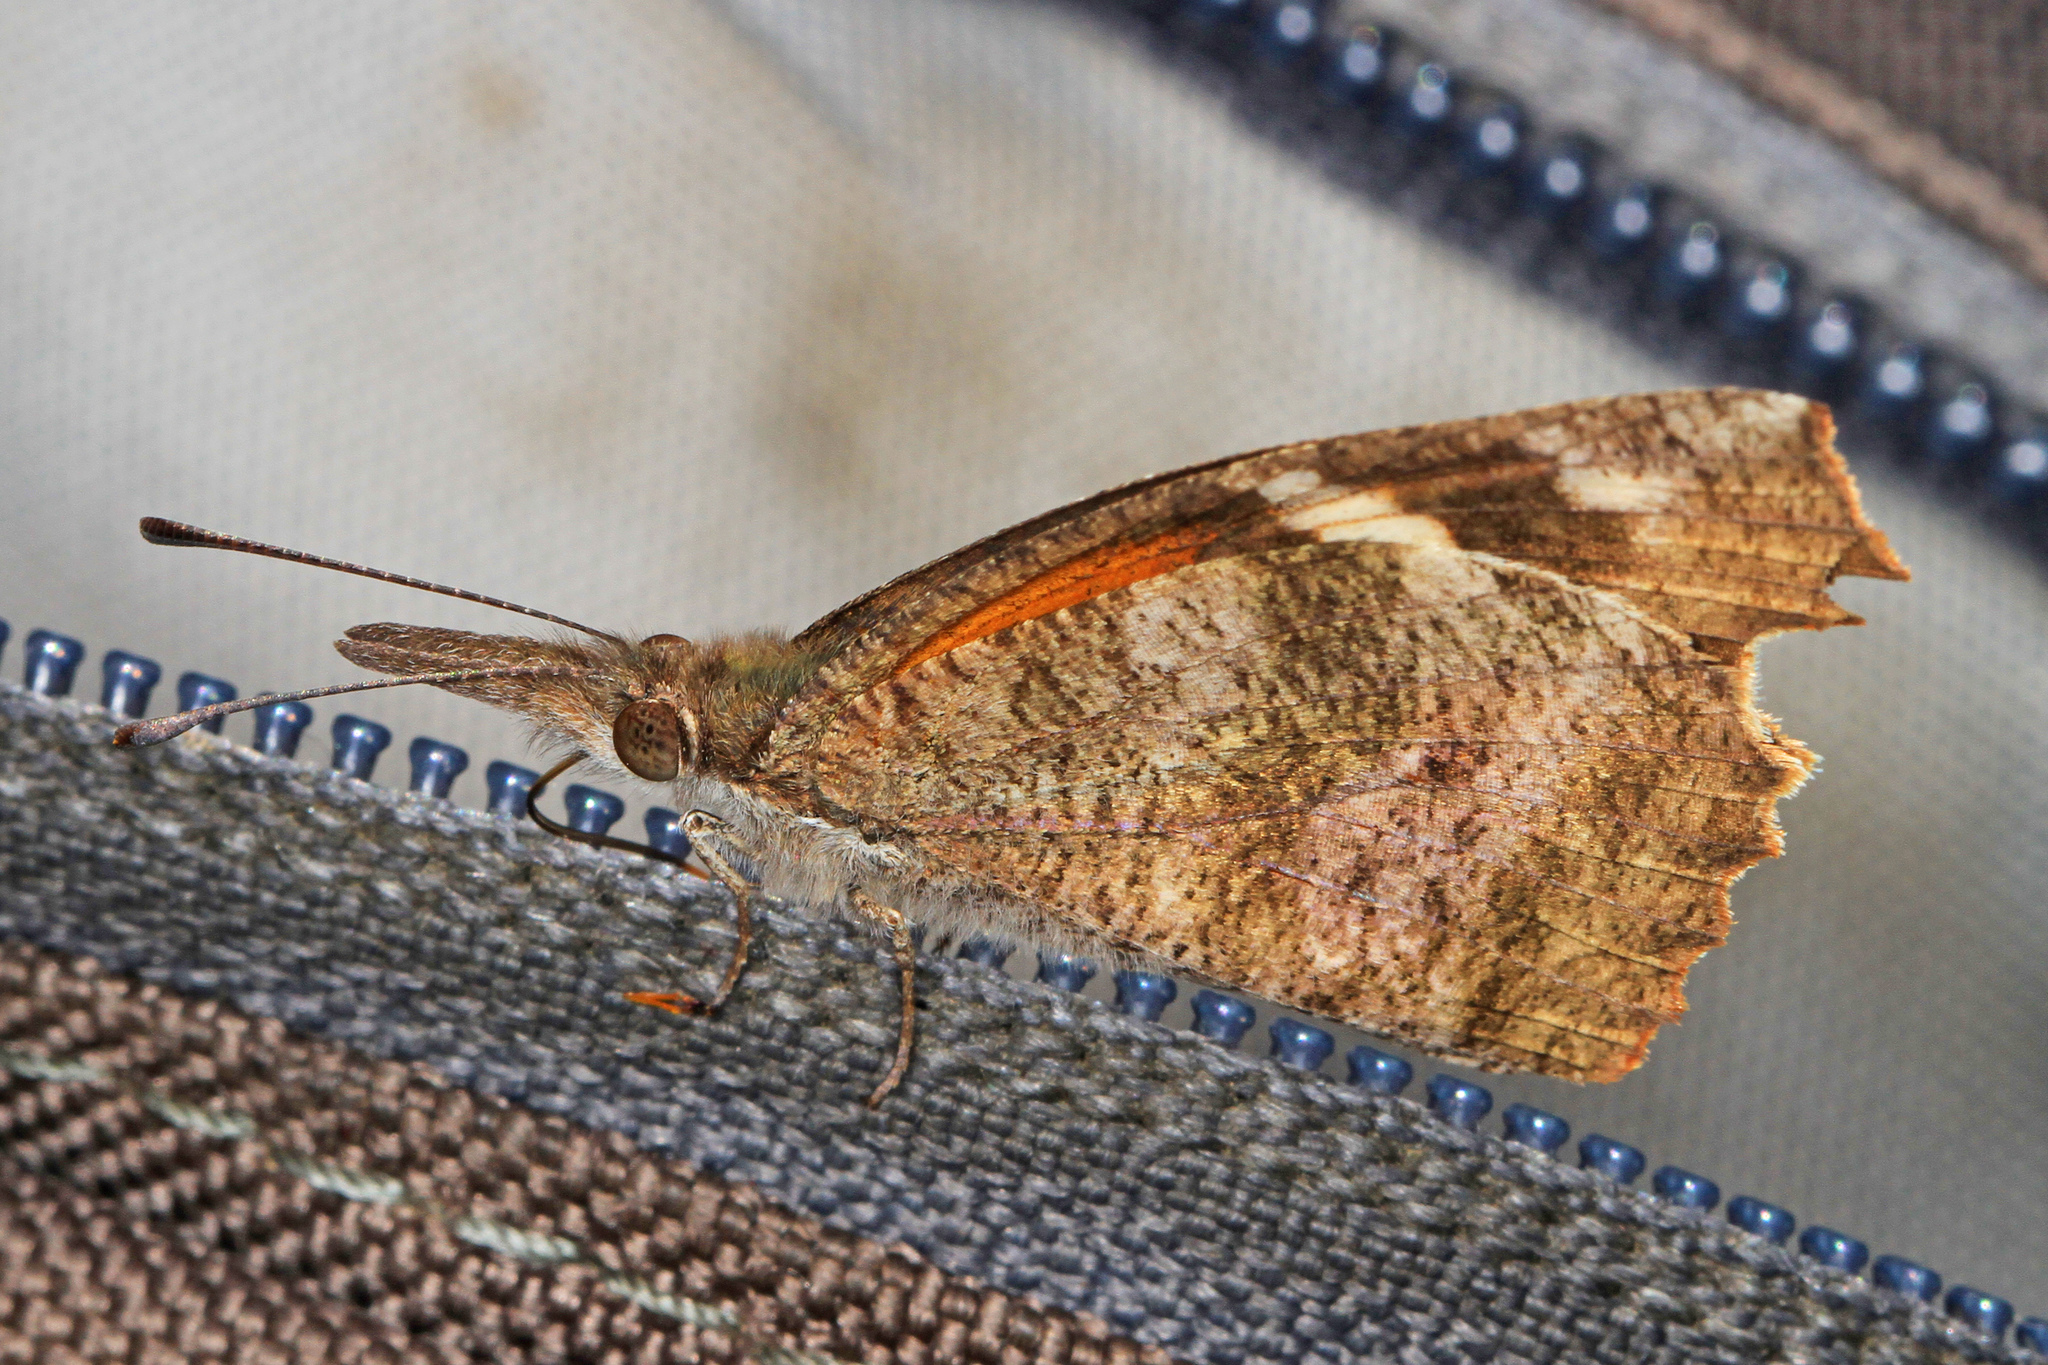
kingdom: Animalia
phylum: Arthropoda
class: Insecta
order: Lepidoptera
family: Nymphalidae
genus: Libytheana
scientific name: Libytheana carinenta
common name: American snout
